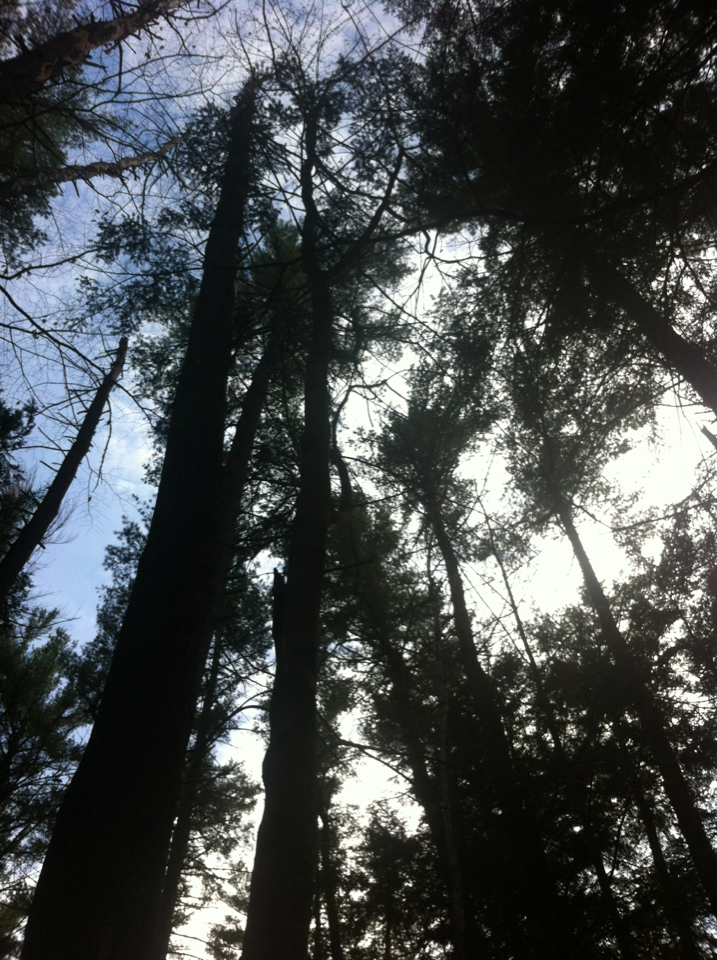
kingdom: Plantae
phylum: Tracheophyta
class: Pinopsida
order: Pinales
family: Pinaceae
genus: Pinus
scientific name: Pinus strobus
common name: Weymouth pine
